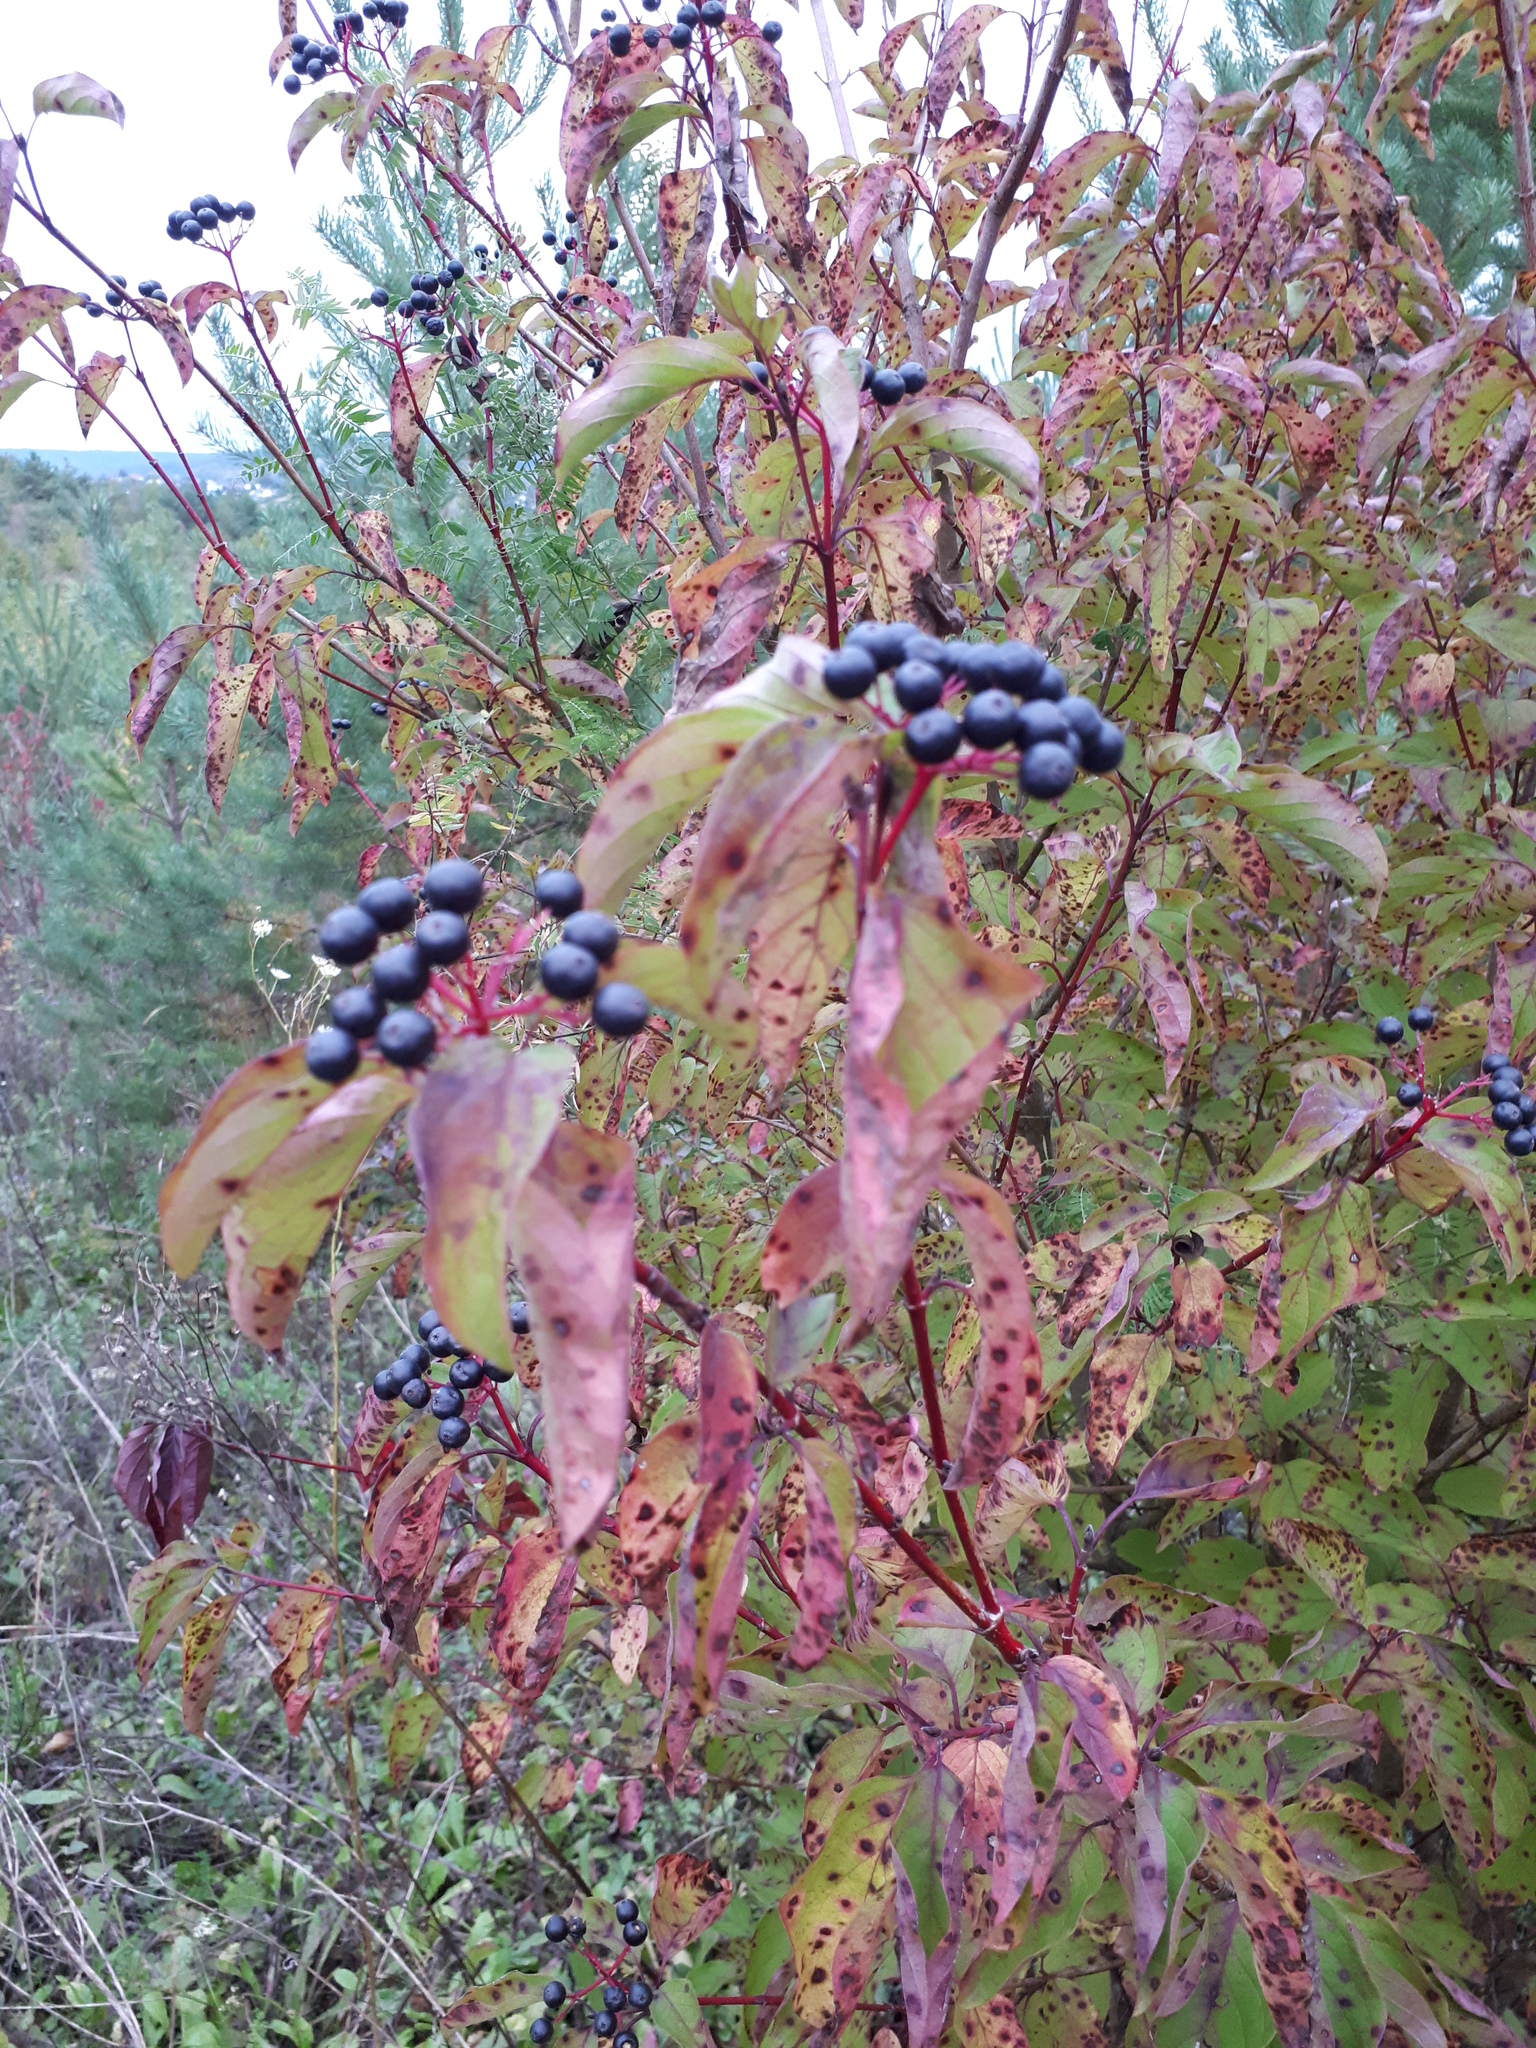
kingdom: Plantae
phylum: Tracheophyta
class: Magnoliopsida
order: Cornales
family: Cornaceae
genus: Cornus
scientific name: Cornus sanguinea
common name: Dogwood
